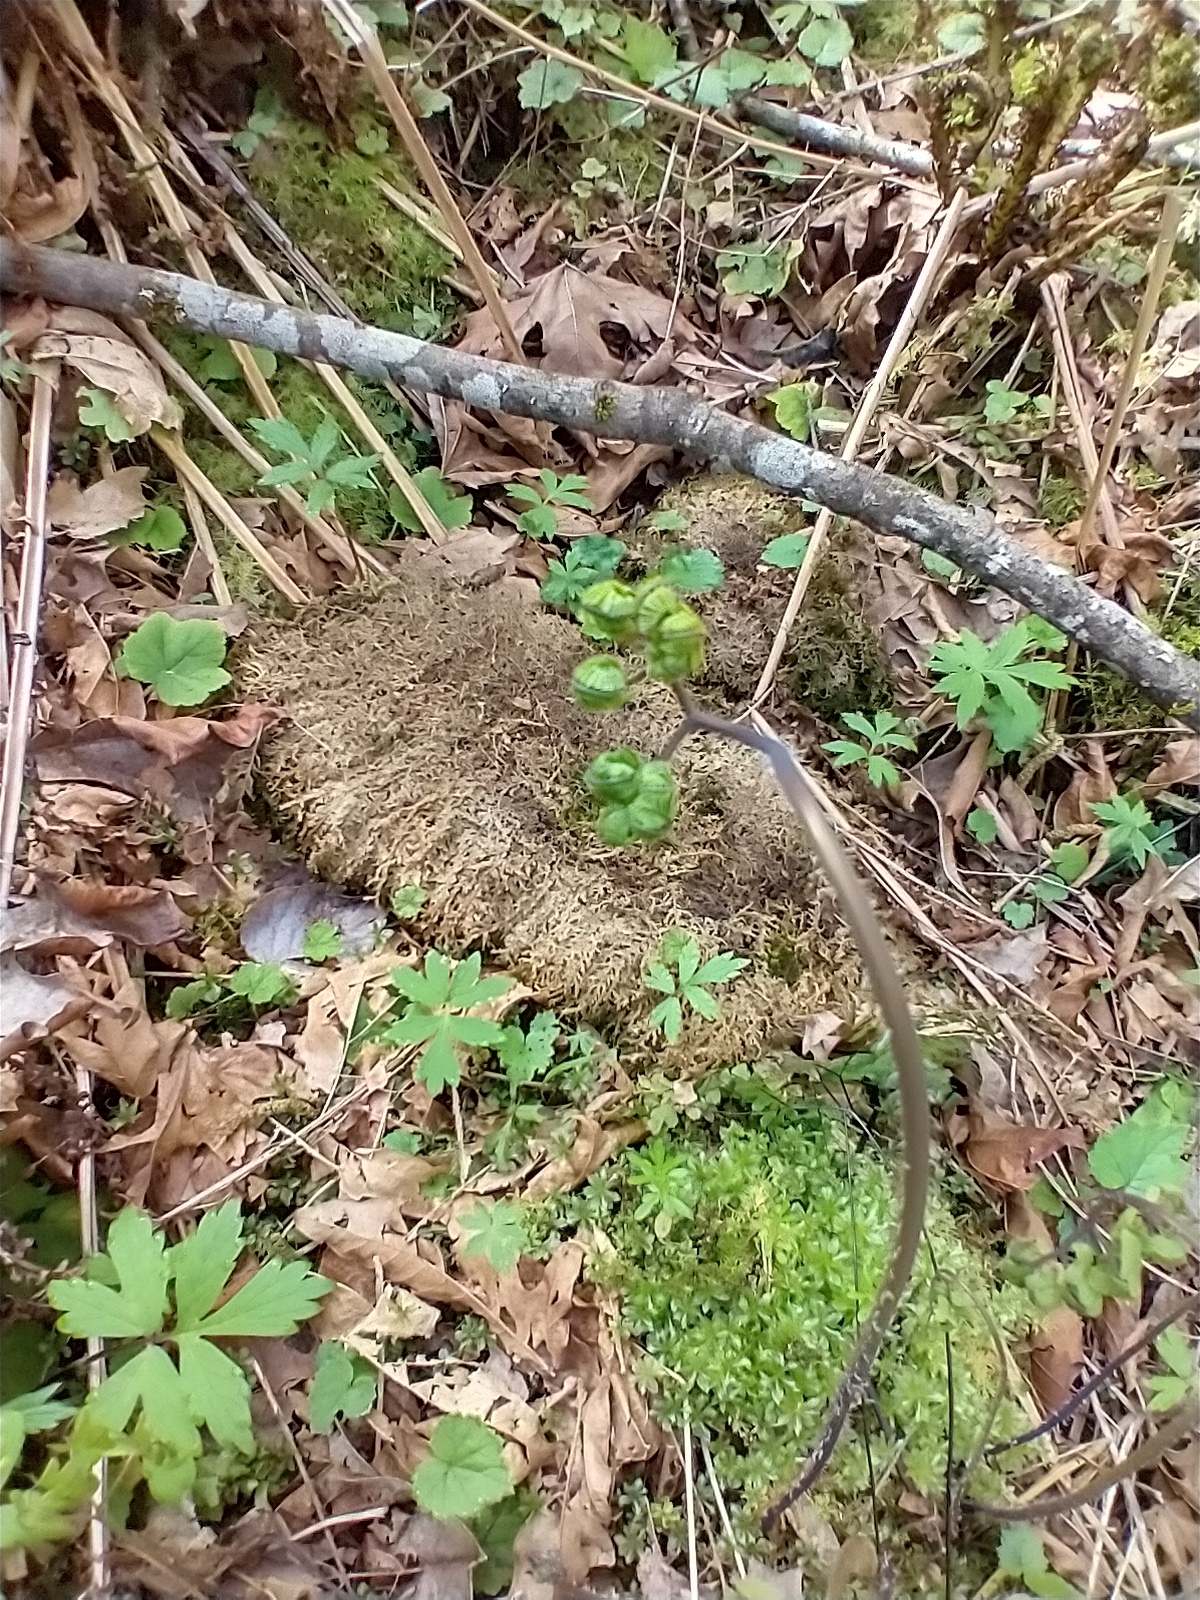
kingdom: Plantae
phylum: Tracheophyta
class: Polypodiopsida
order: Polypodiales
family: Pteridaceae
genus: Adiantum
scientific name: Adiantum aleuticum
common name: Aleutian maidenhair fern
